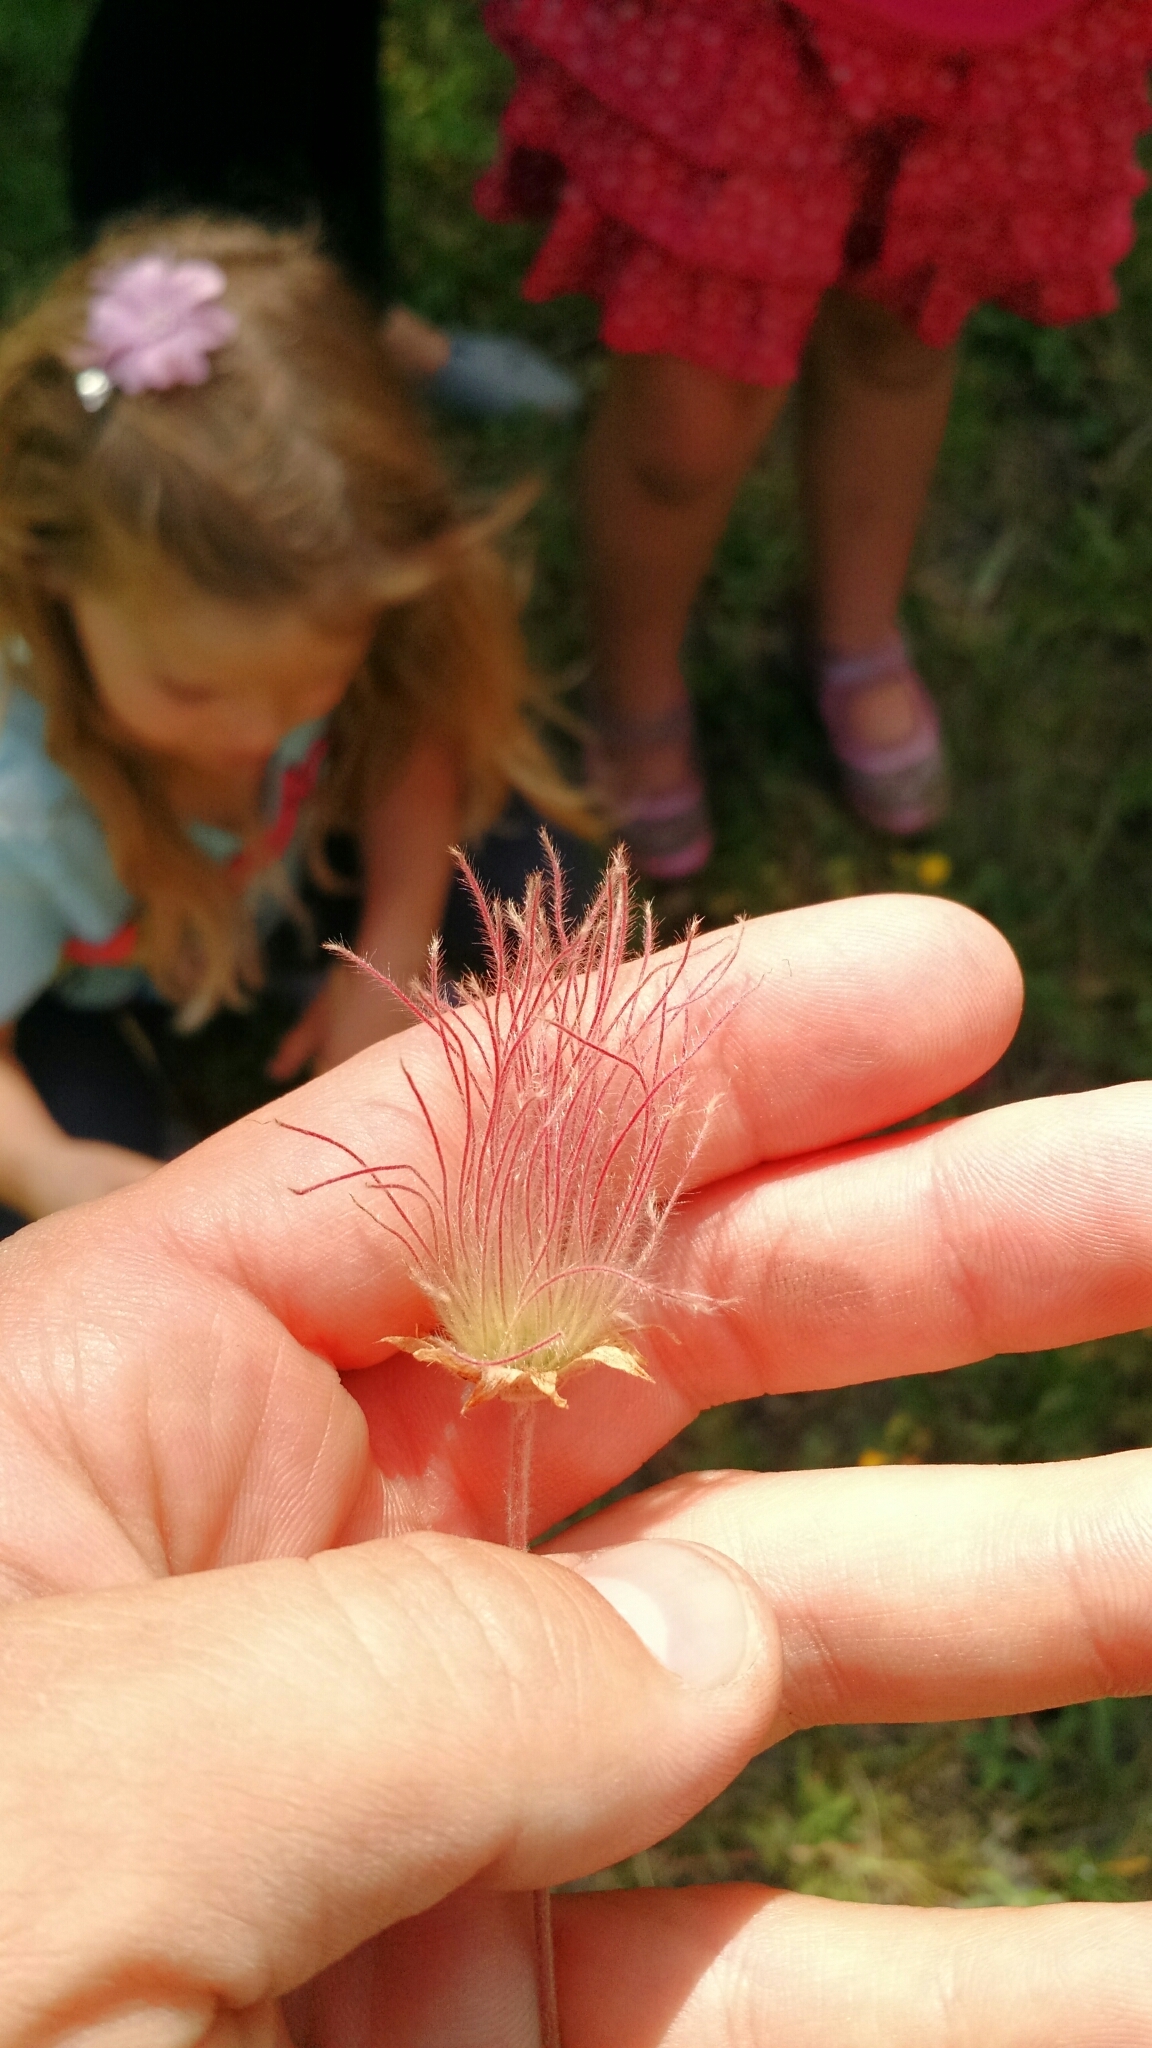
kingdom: Plantae
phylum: Tracheophyta
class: Magnoliopsida
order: Rosales
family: Rosaceae
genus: Geum
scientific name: Geum triflorum
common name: Old man's whiskers
